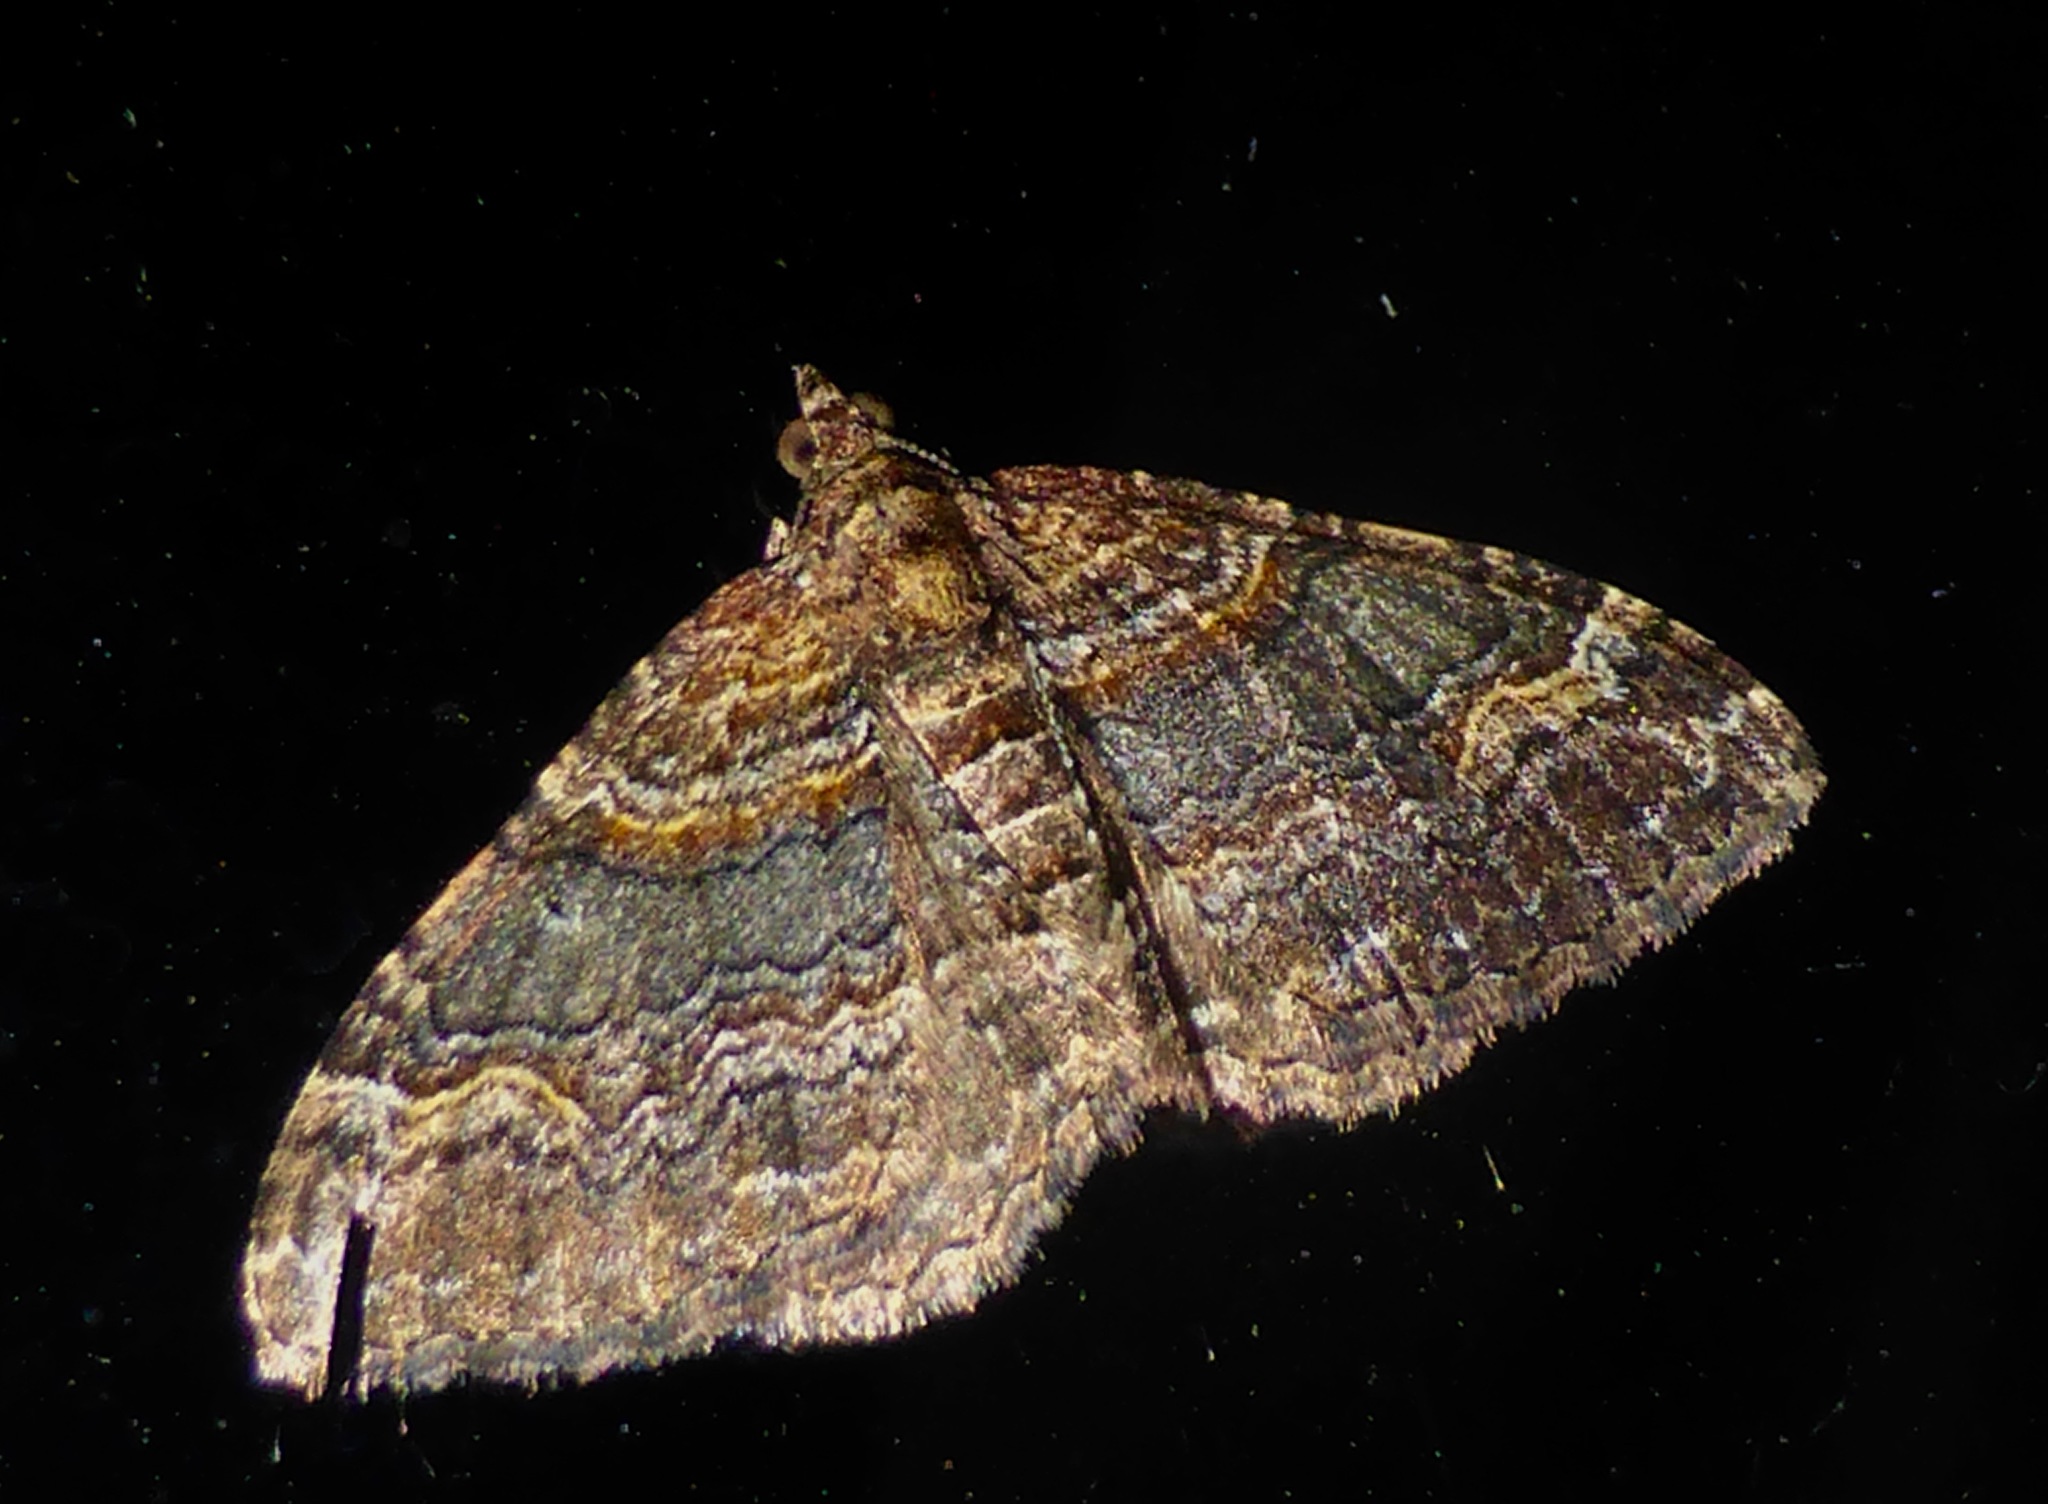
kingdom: Animalia
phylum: Arthropoda
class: Insecta
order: Lepidoptera
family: Geometridae
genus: Epyaxa
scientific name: Epyaxa lucidata
